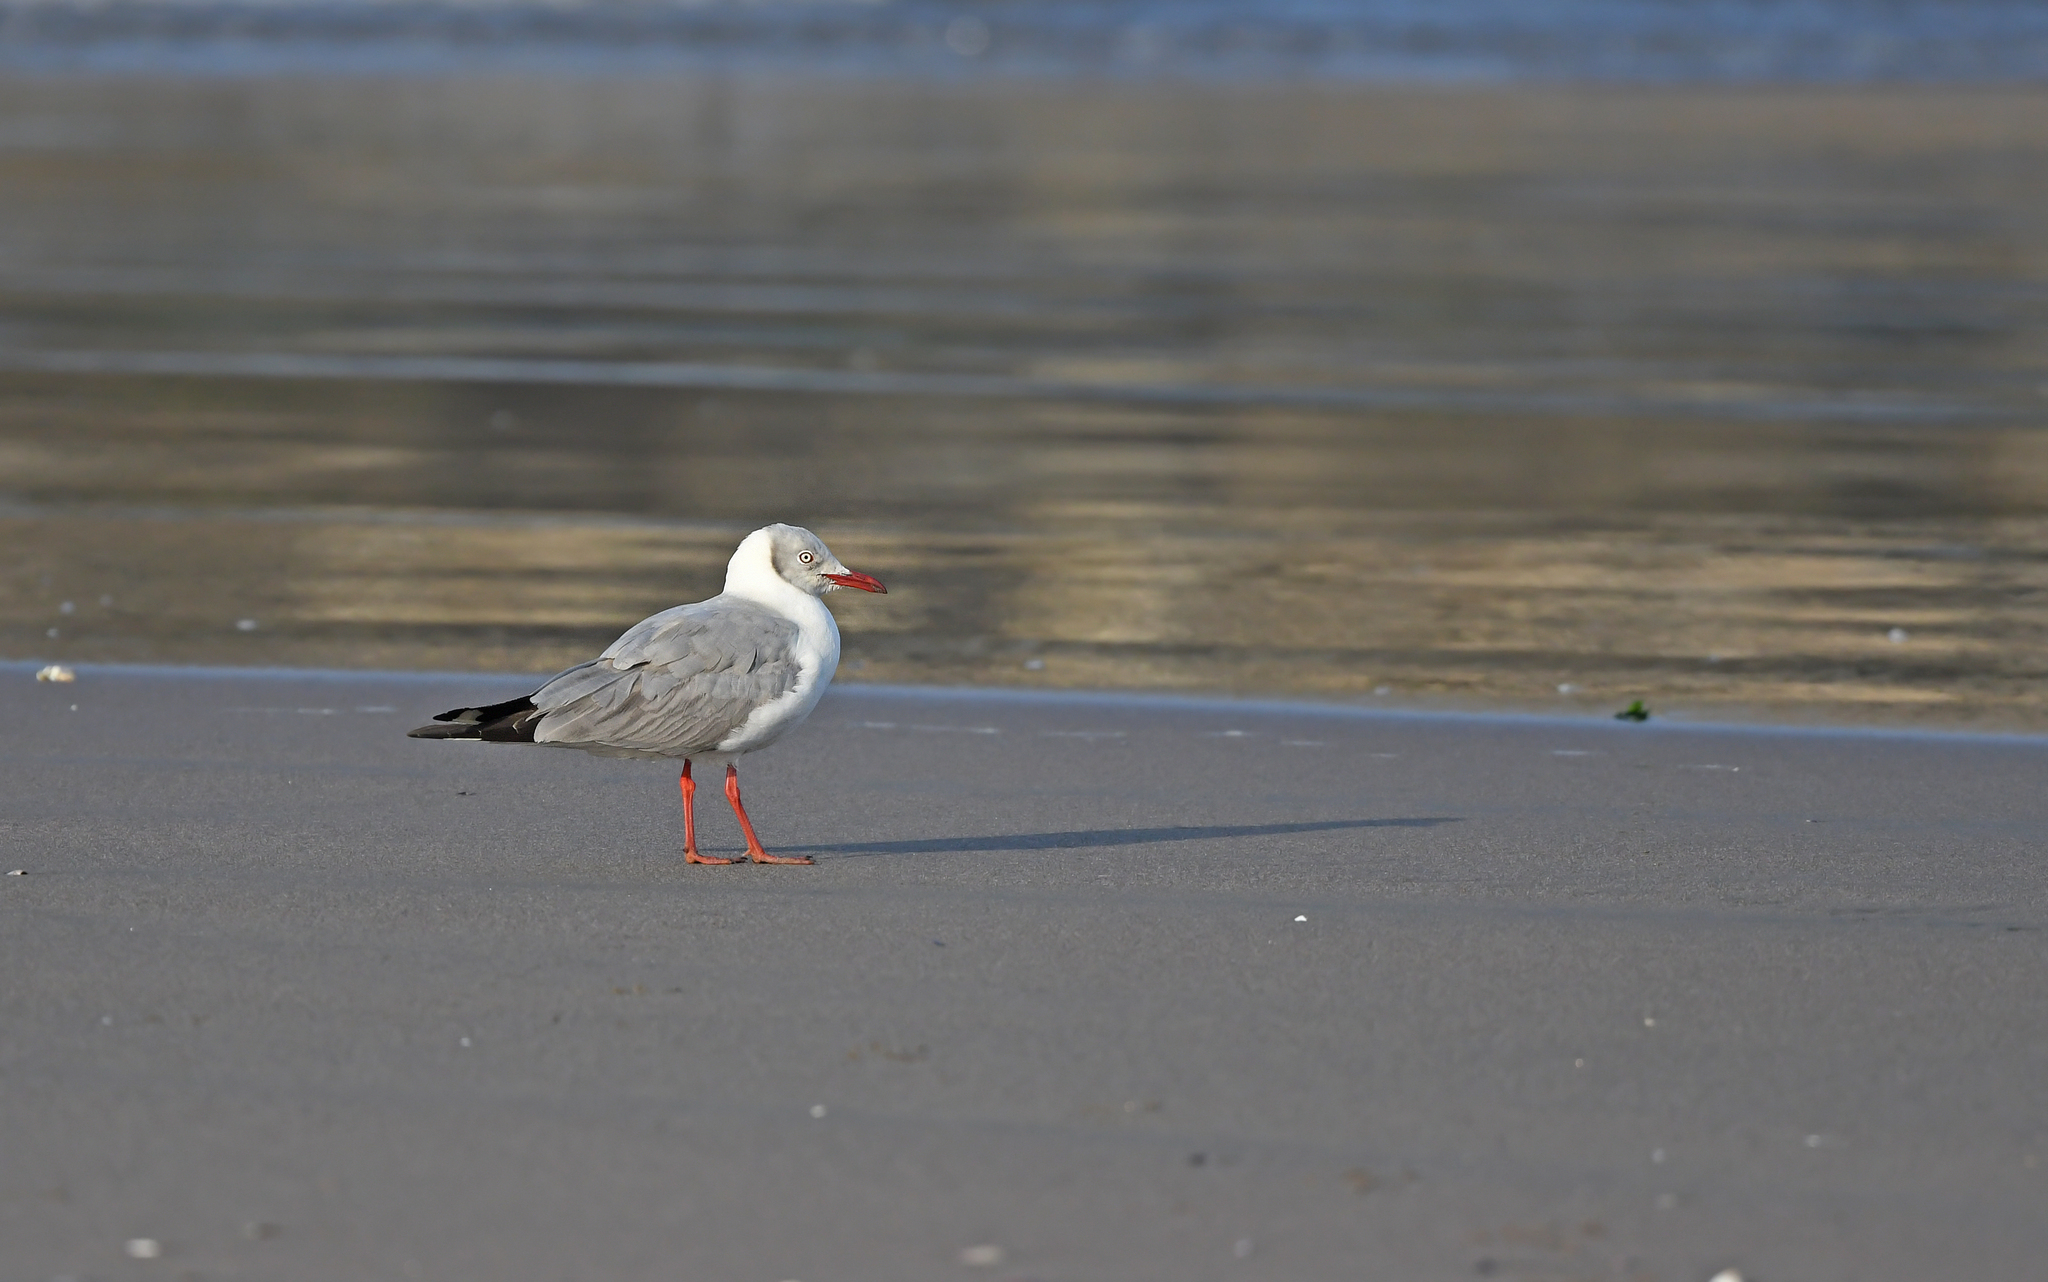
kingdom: Animalia
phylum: Chordata
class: Aves
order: Charadriiformes
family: Laridae
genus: Chroicocephalus
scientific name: Chroicocephalus cirrocephalus
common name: Grey-headed gull
